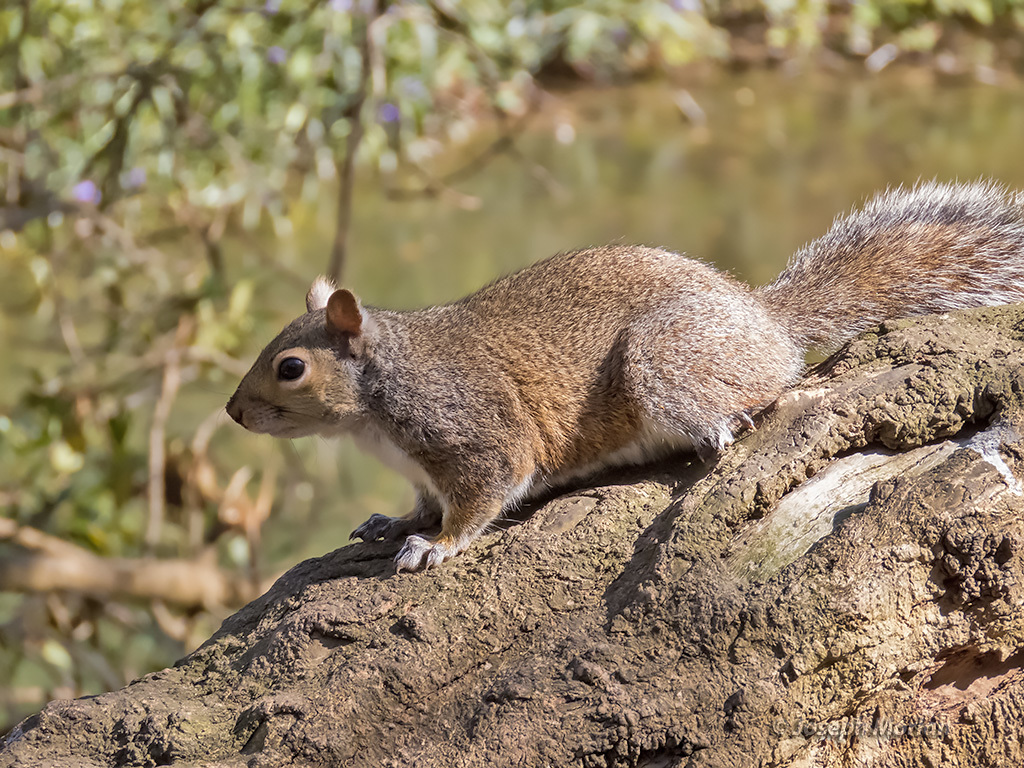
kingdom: Animalia
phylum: Chordata
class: Mammalia
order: Rodentia
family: Sciuridae
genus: Sciurus
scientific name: Sciurus carolinensis
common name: Eastern gray squirrel
